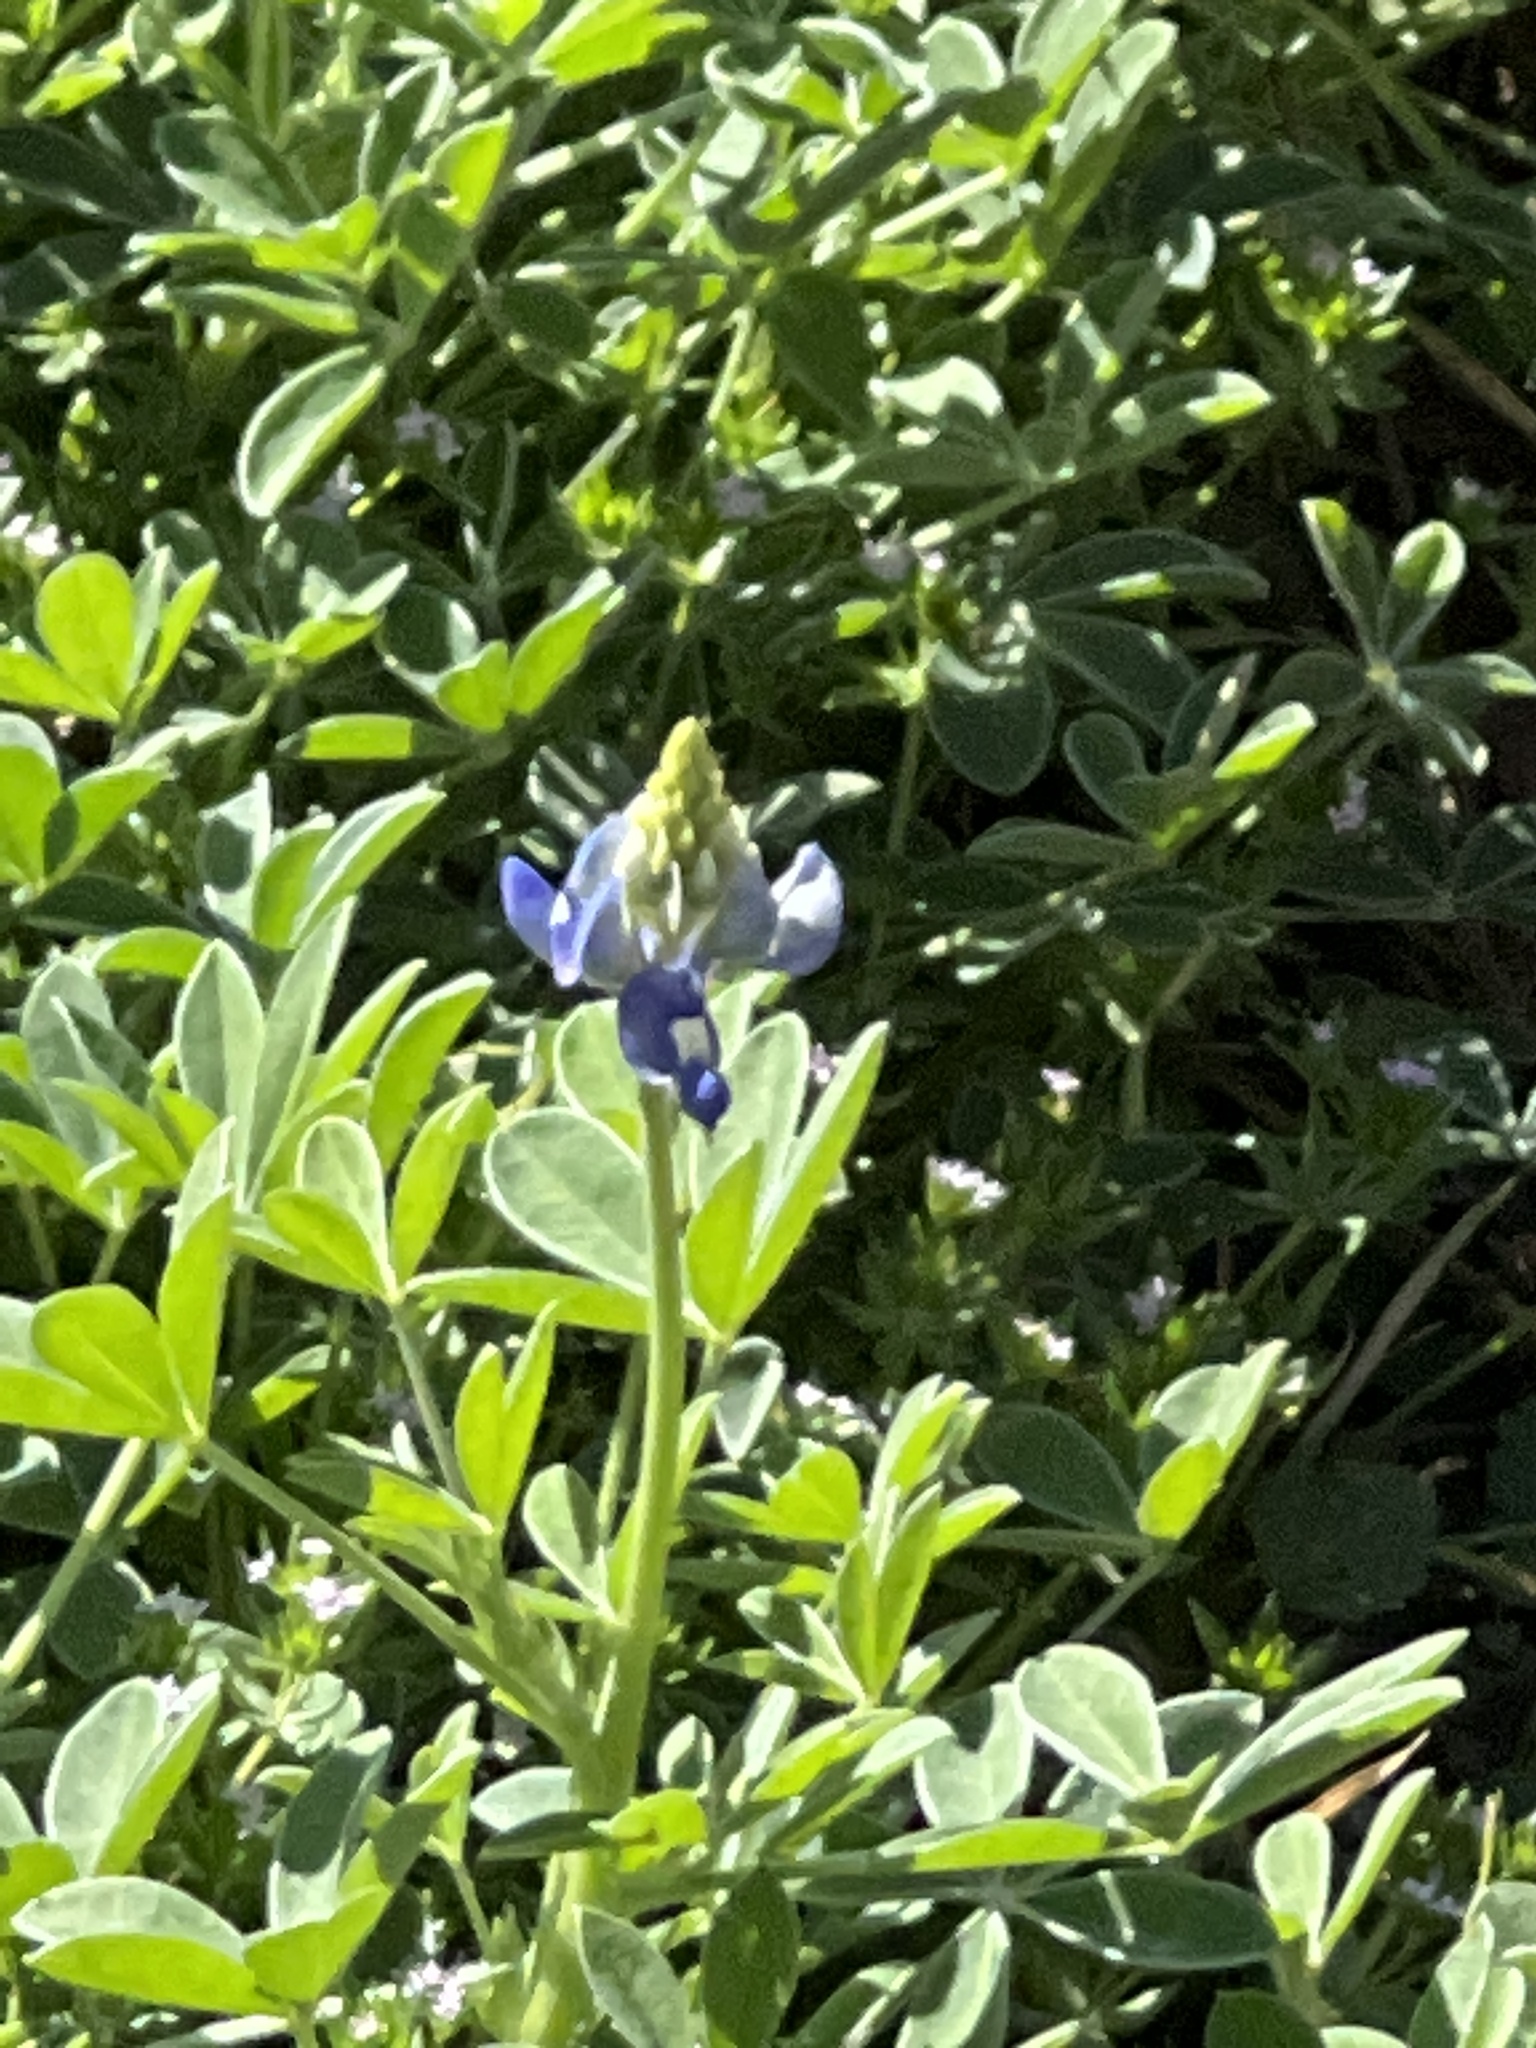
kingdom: Plantae
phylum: Tracheophyta
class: Magnoliopsida
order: Fabales
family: Fabaceae
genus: Lupinus
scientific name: Lupinus texensis
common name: Texas bluebonnet
